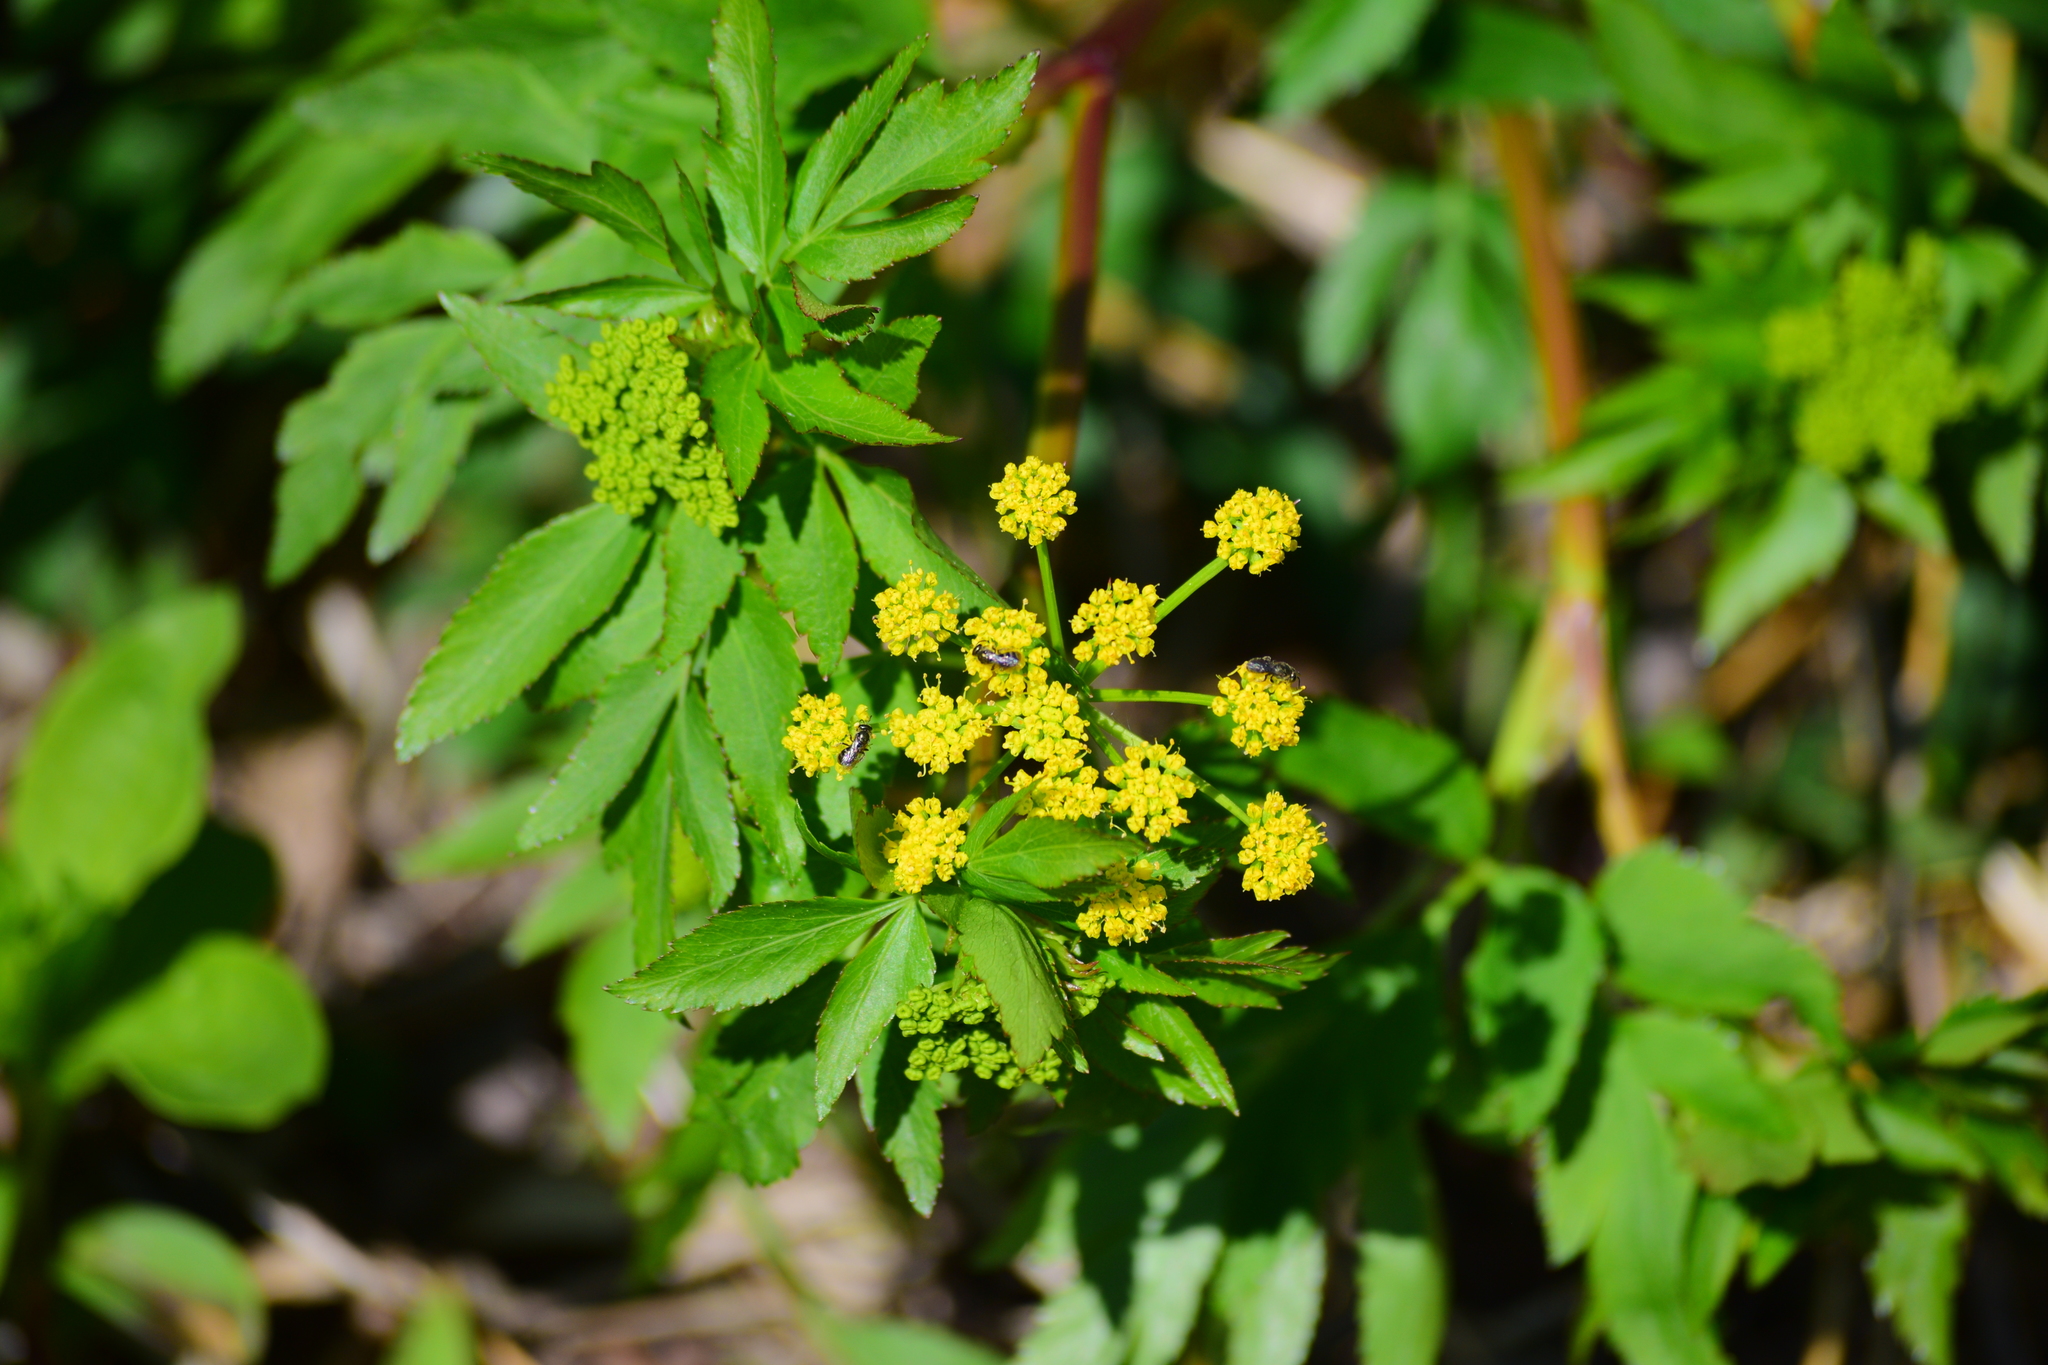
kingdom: Plantae
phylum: Tracheophyta
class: Magnoliopsida
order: Apiales
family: Apiaceae
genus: Zizia
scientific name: Zizia aurea
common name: Golden alexanders
